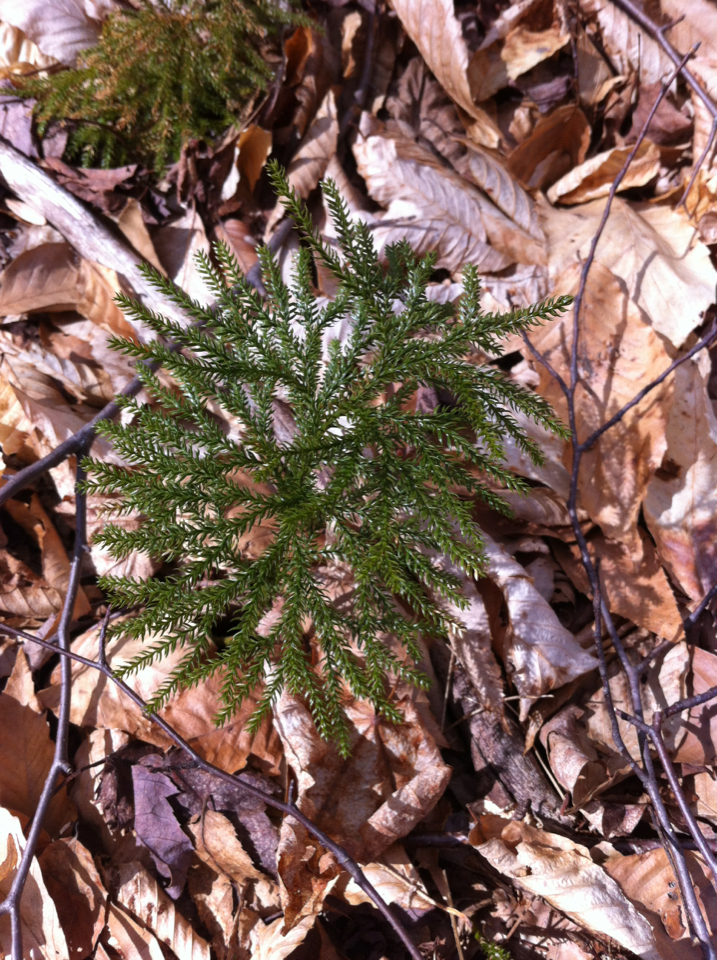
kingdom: Plantae
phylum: Tracheophyta
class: Lycopodiopsida
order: Lycopodiales
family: Lycopodiaceae
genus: Dendrolycopodium
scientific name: Dendrolycopodium obscurum
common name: Common ground-pine
